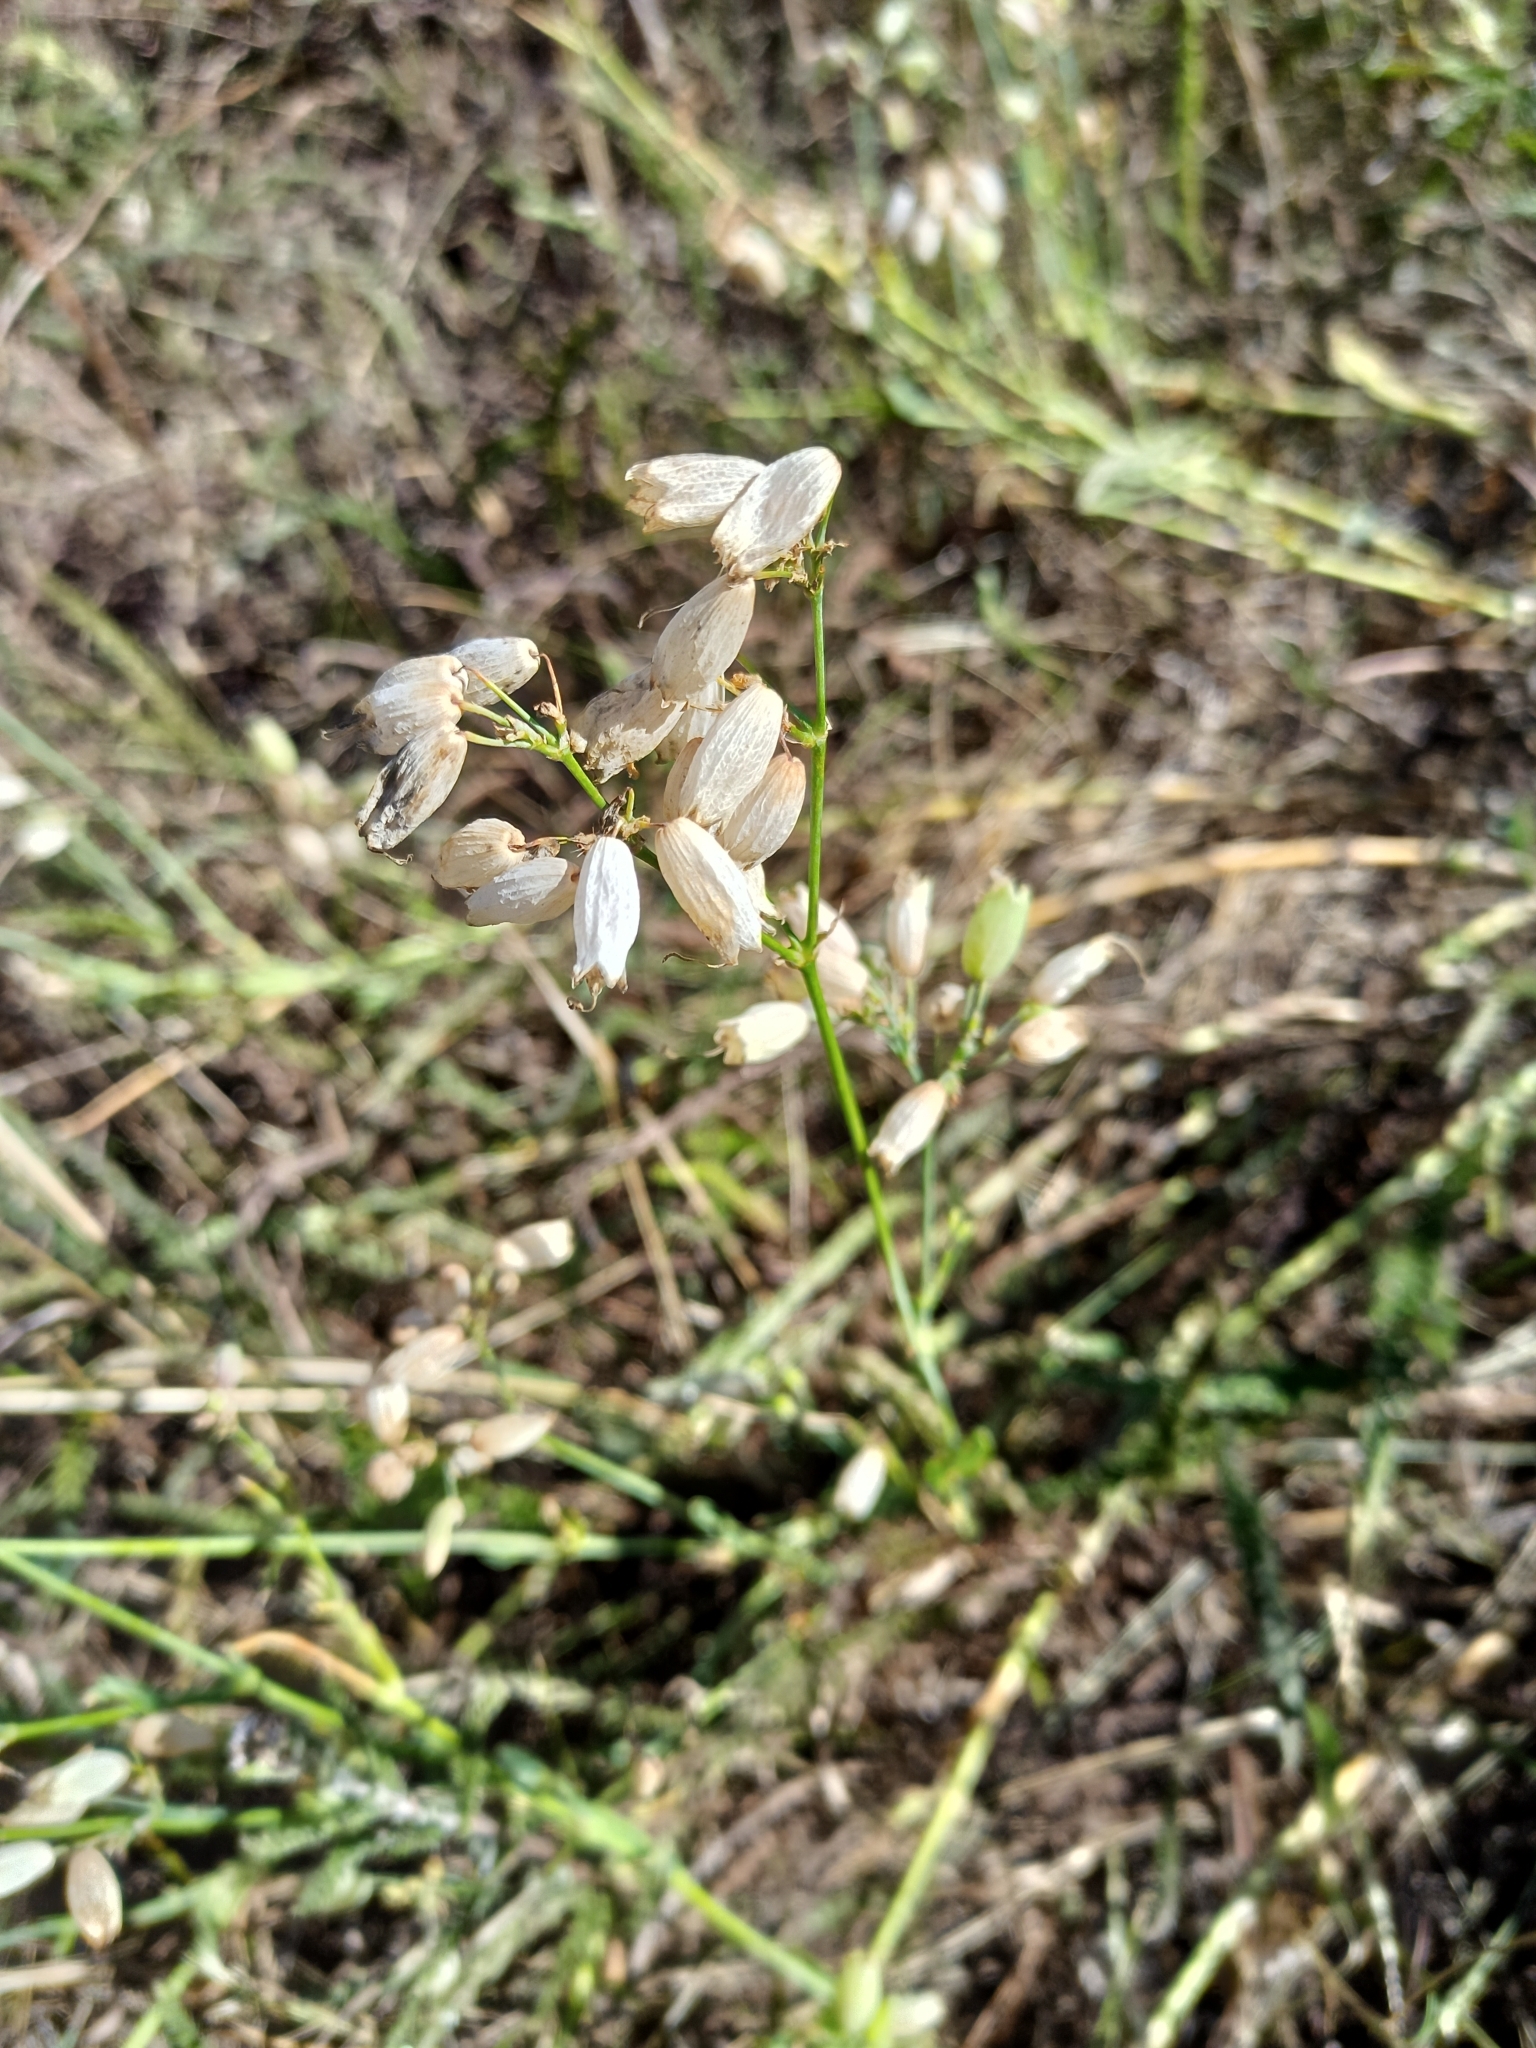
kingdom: Plantae
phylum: Tracheophyta
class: Magnoliopsida
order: Caryophyllales
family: Caryophyllaceae
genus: Silene
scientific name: Silene vulgaris
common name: Bladder campion
